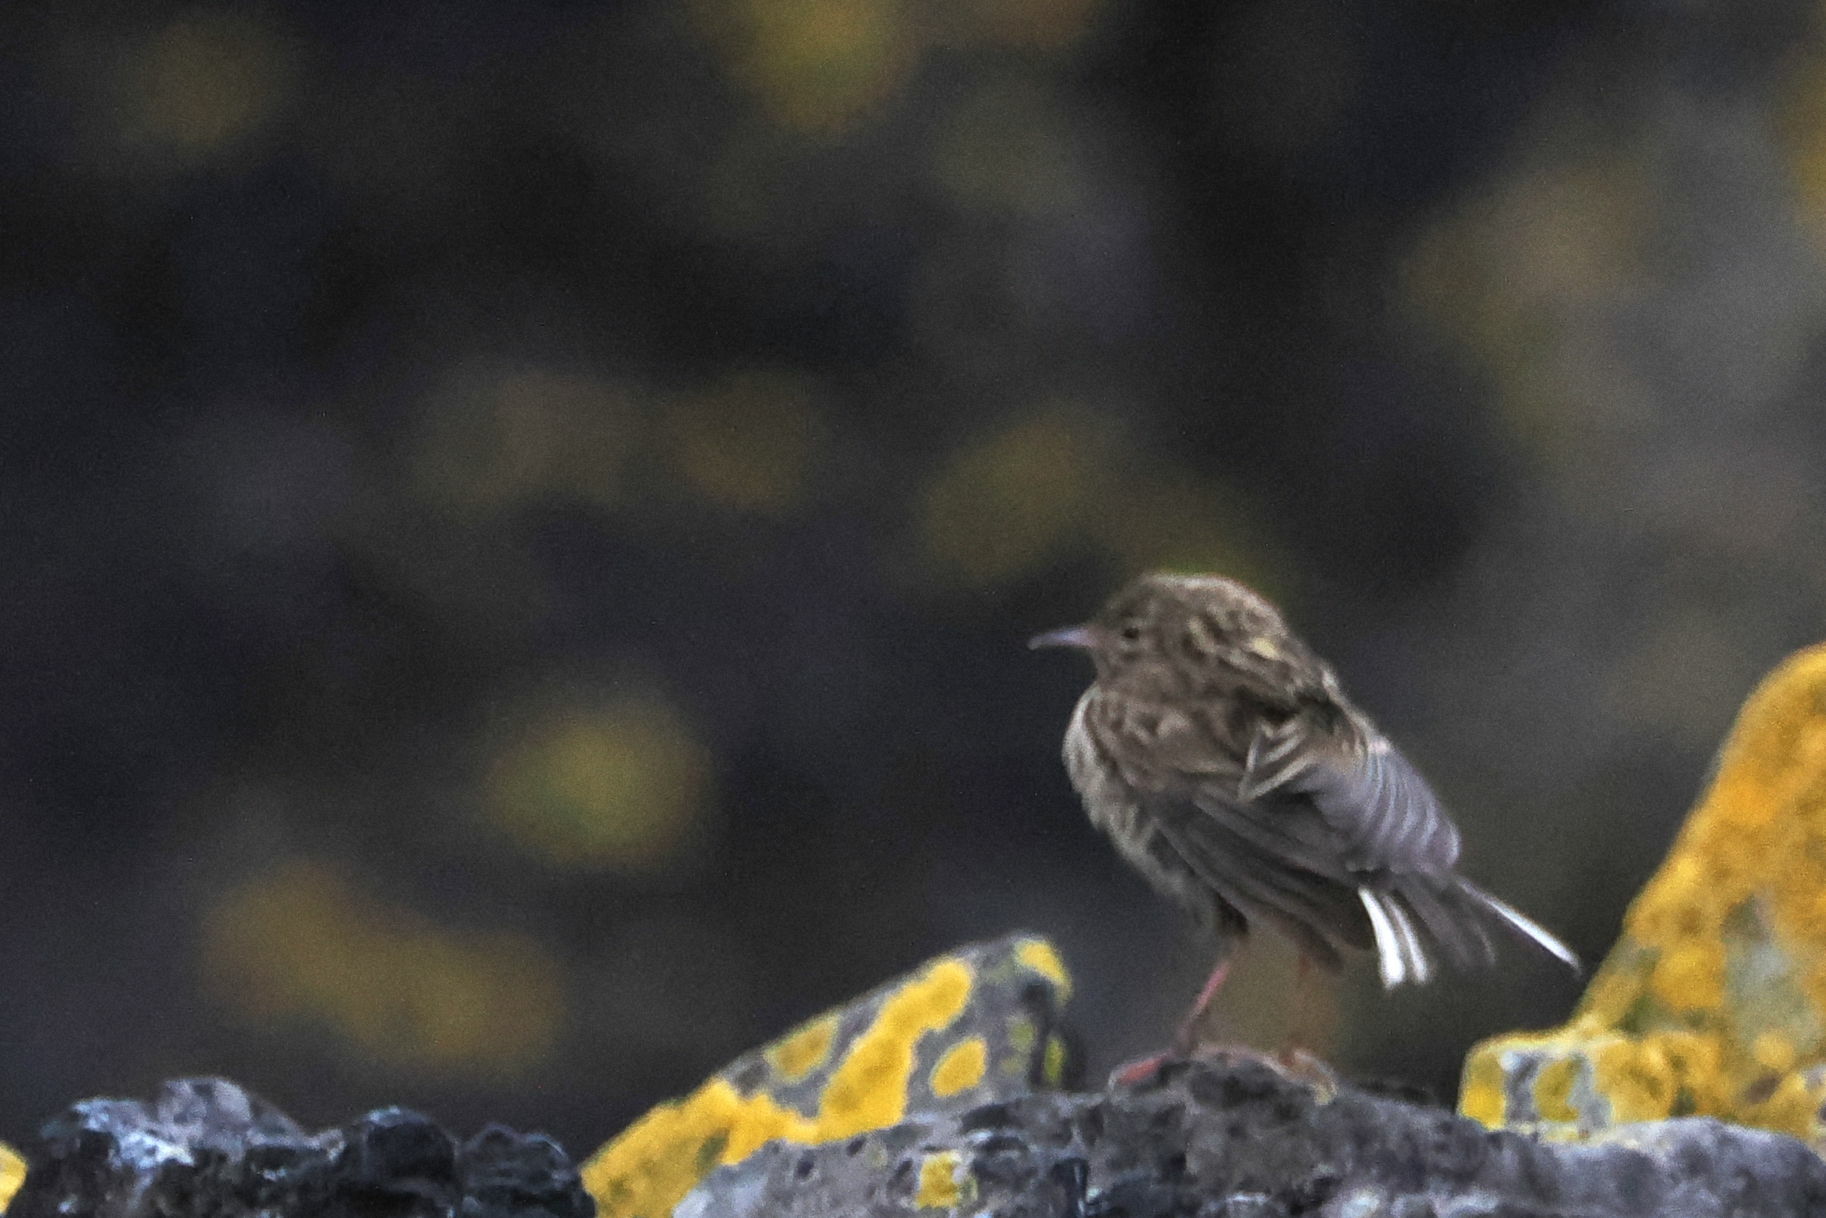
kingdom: Animalia
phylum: Chordata
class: Aves
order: Passeriformes
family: Motacillidae
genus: Anthus
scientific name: Anthus antarcticus
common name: South georgia pipit
